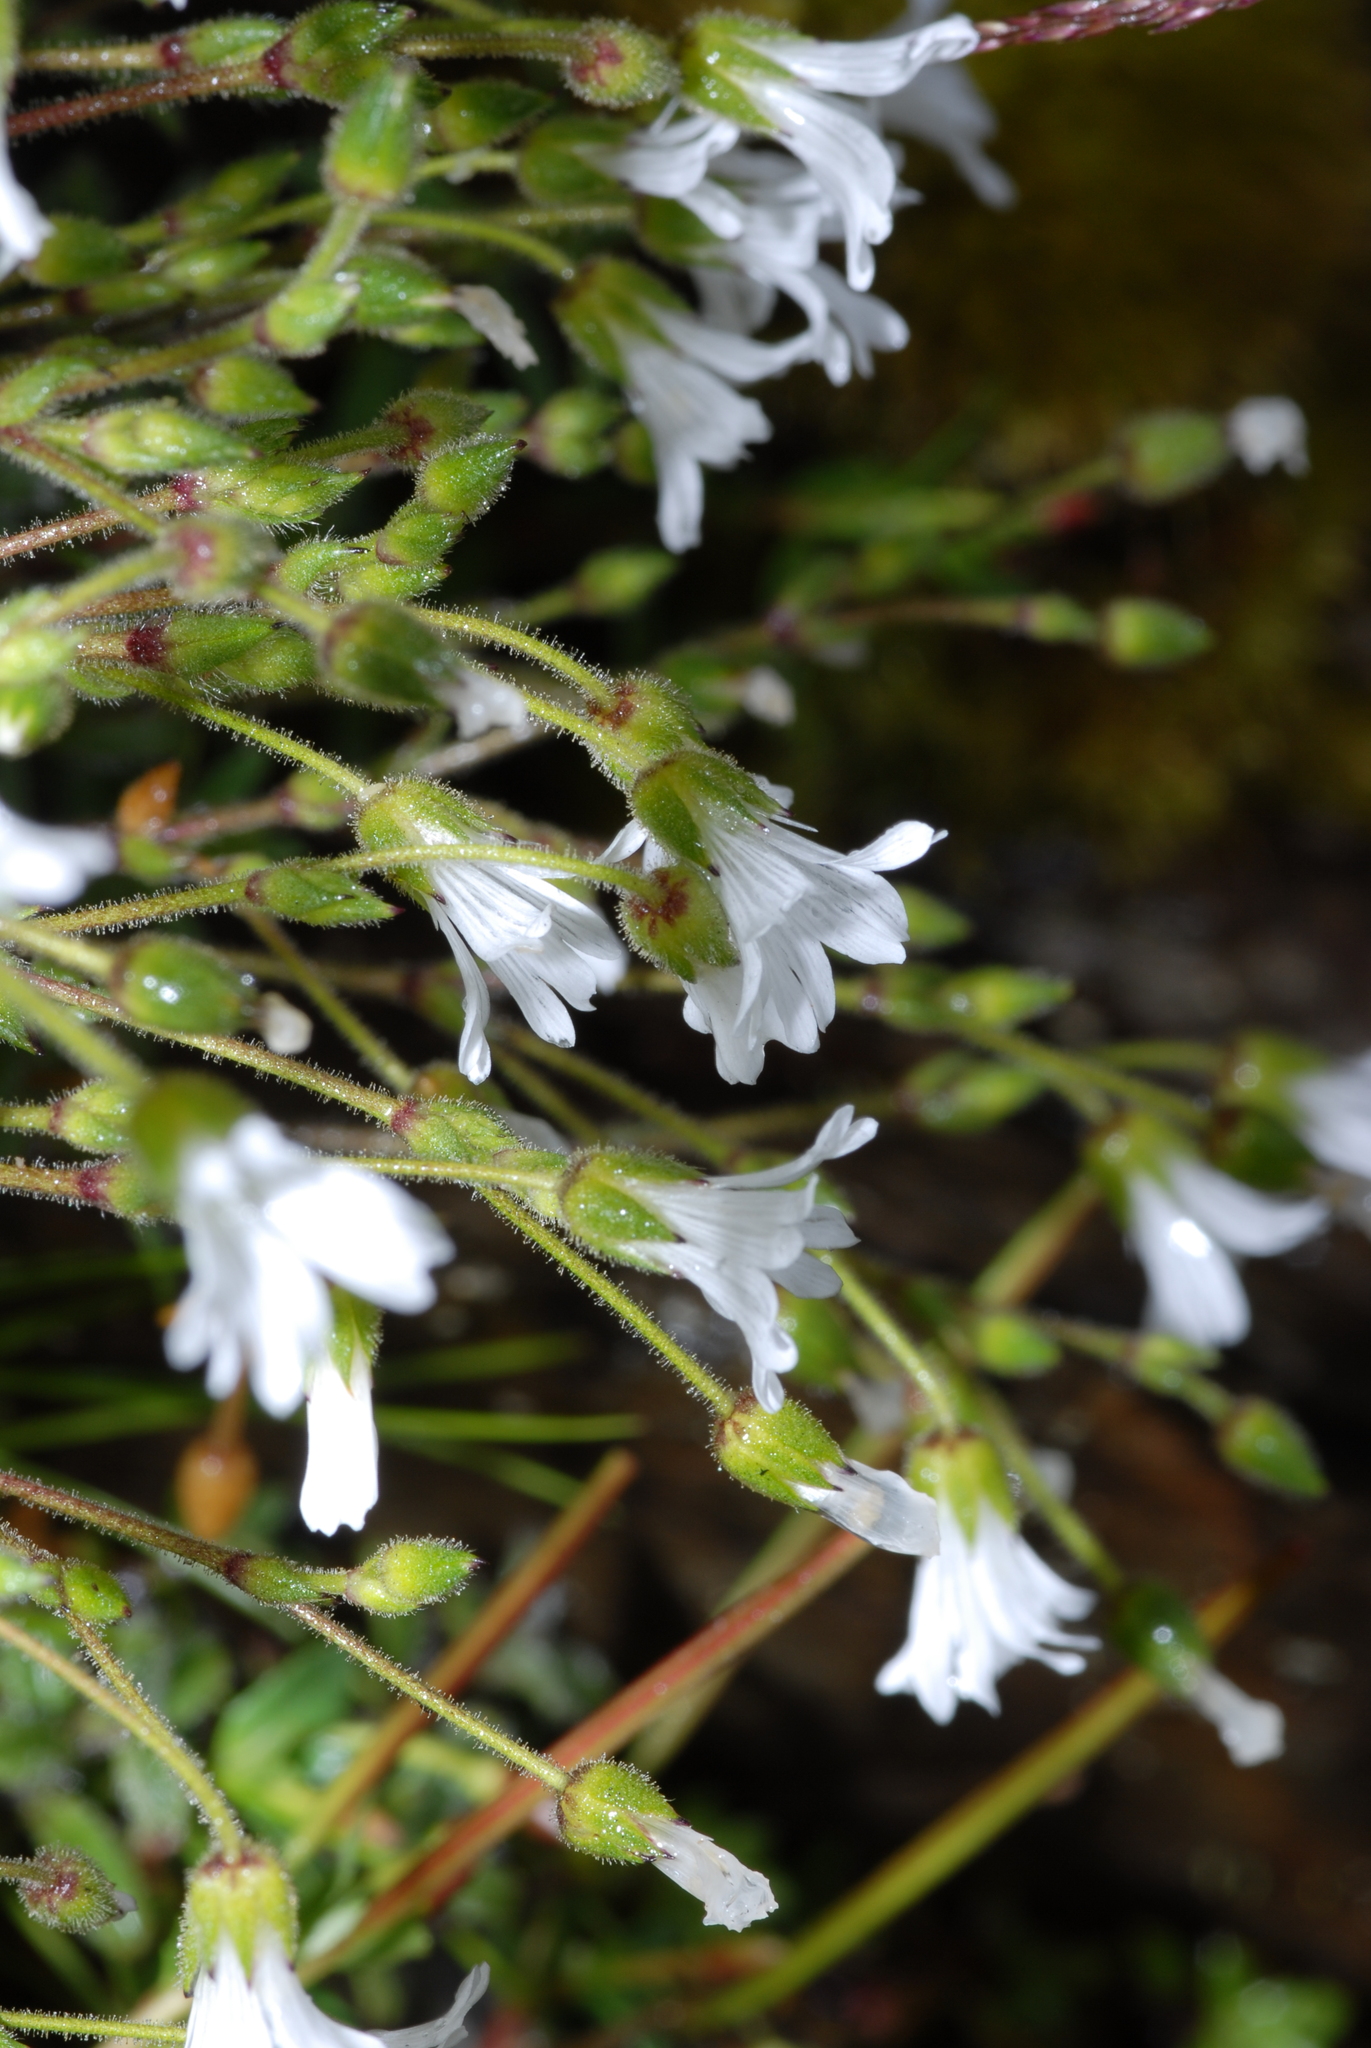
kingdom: Plantae
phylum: Tracheophyta
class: Magnoliopsida
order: Caryophyllales
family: Caryophyllaceae
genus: Cerastium
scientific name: Cerastium morrisonense
